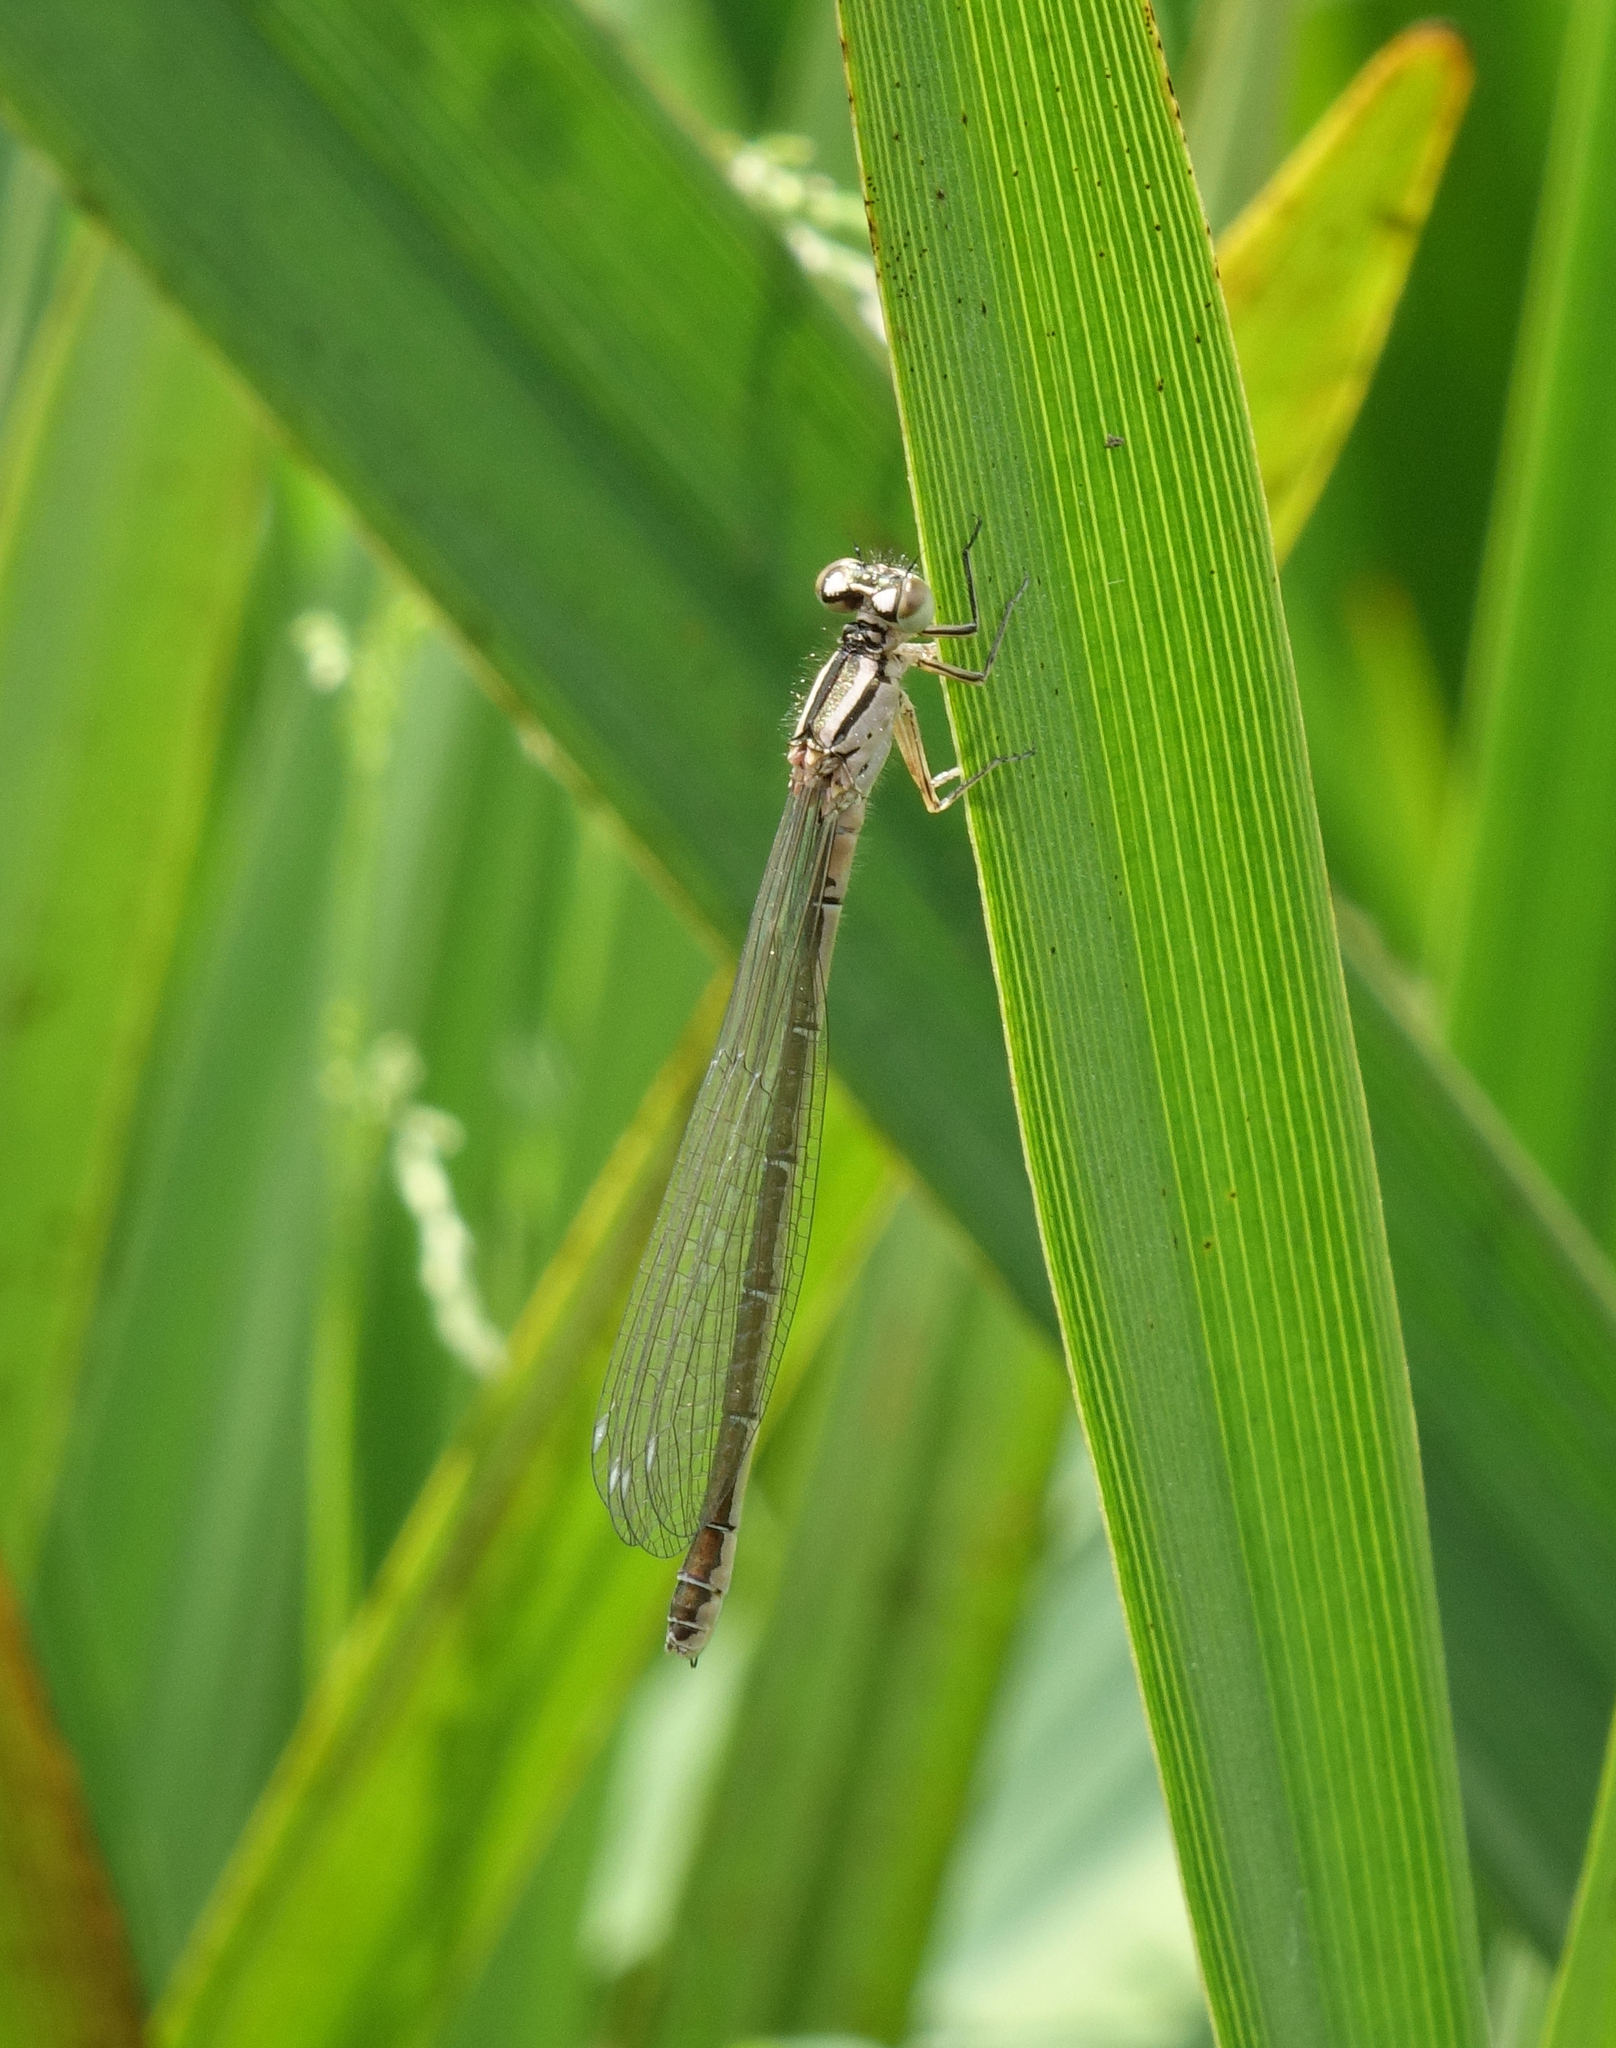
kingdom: Animalia
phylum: Arthropoda
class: Insecta
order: Odonata
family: Coenagrionidae
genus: Coenagrion
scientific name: Coenagrion ornatum
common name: Ornate bluet
